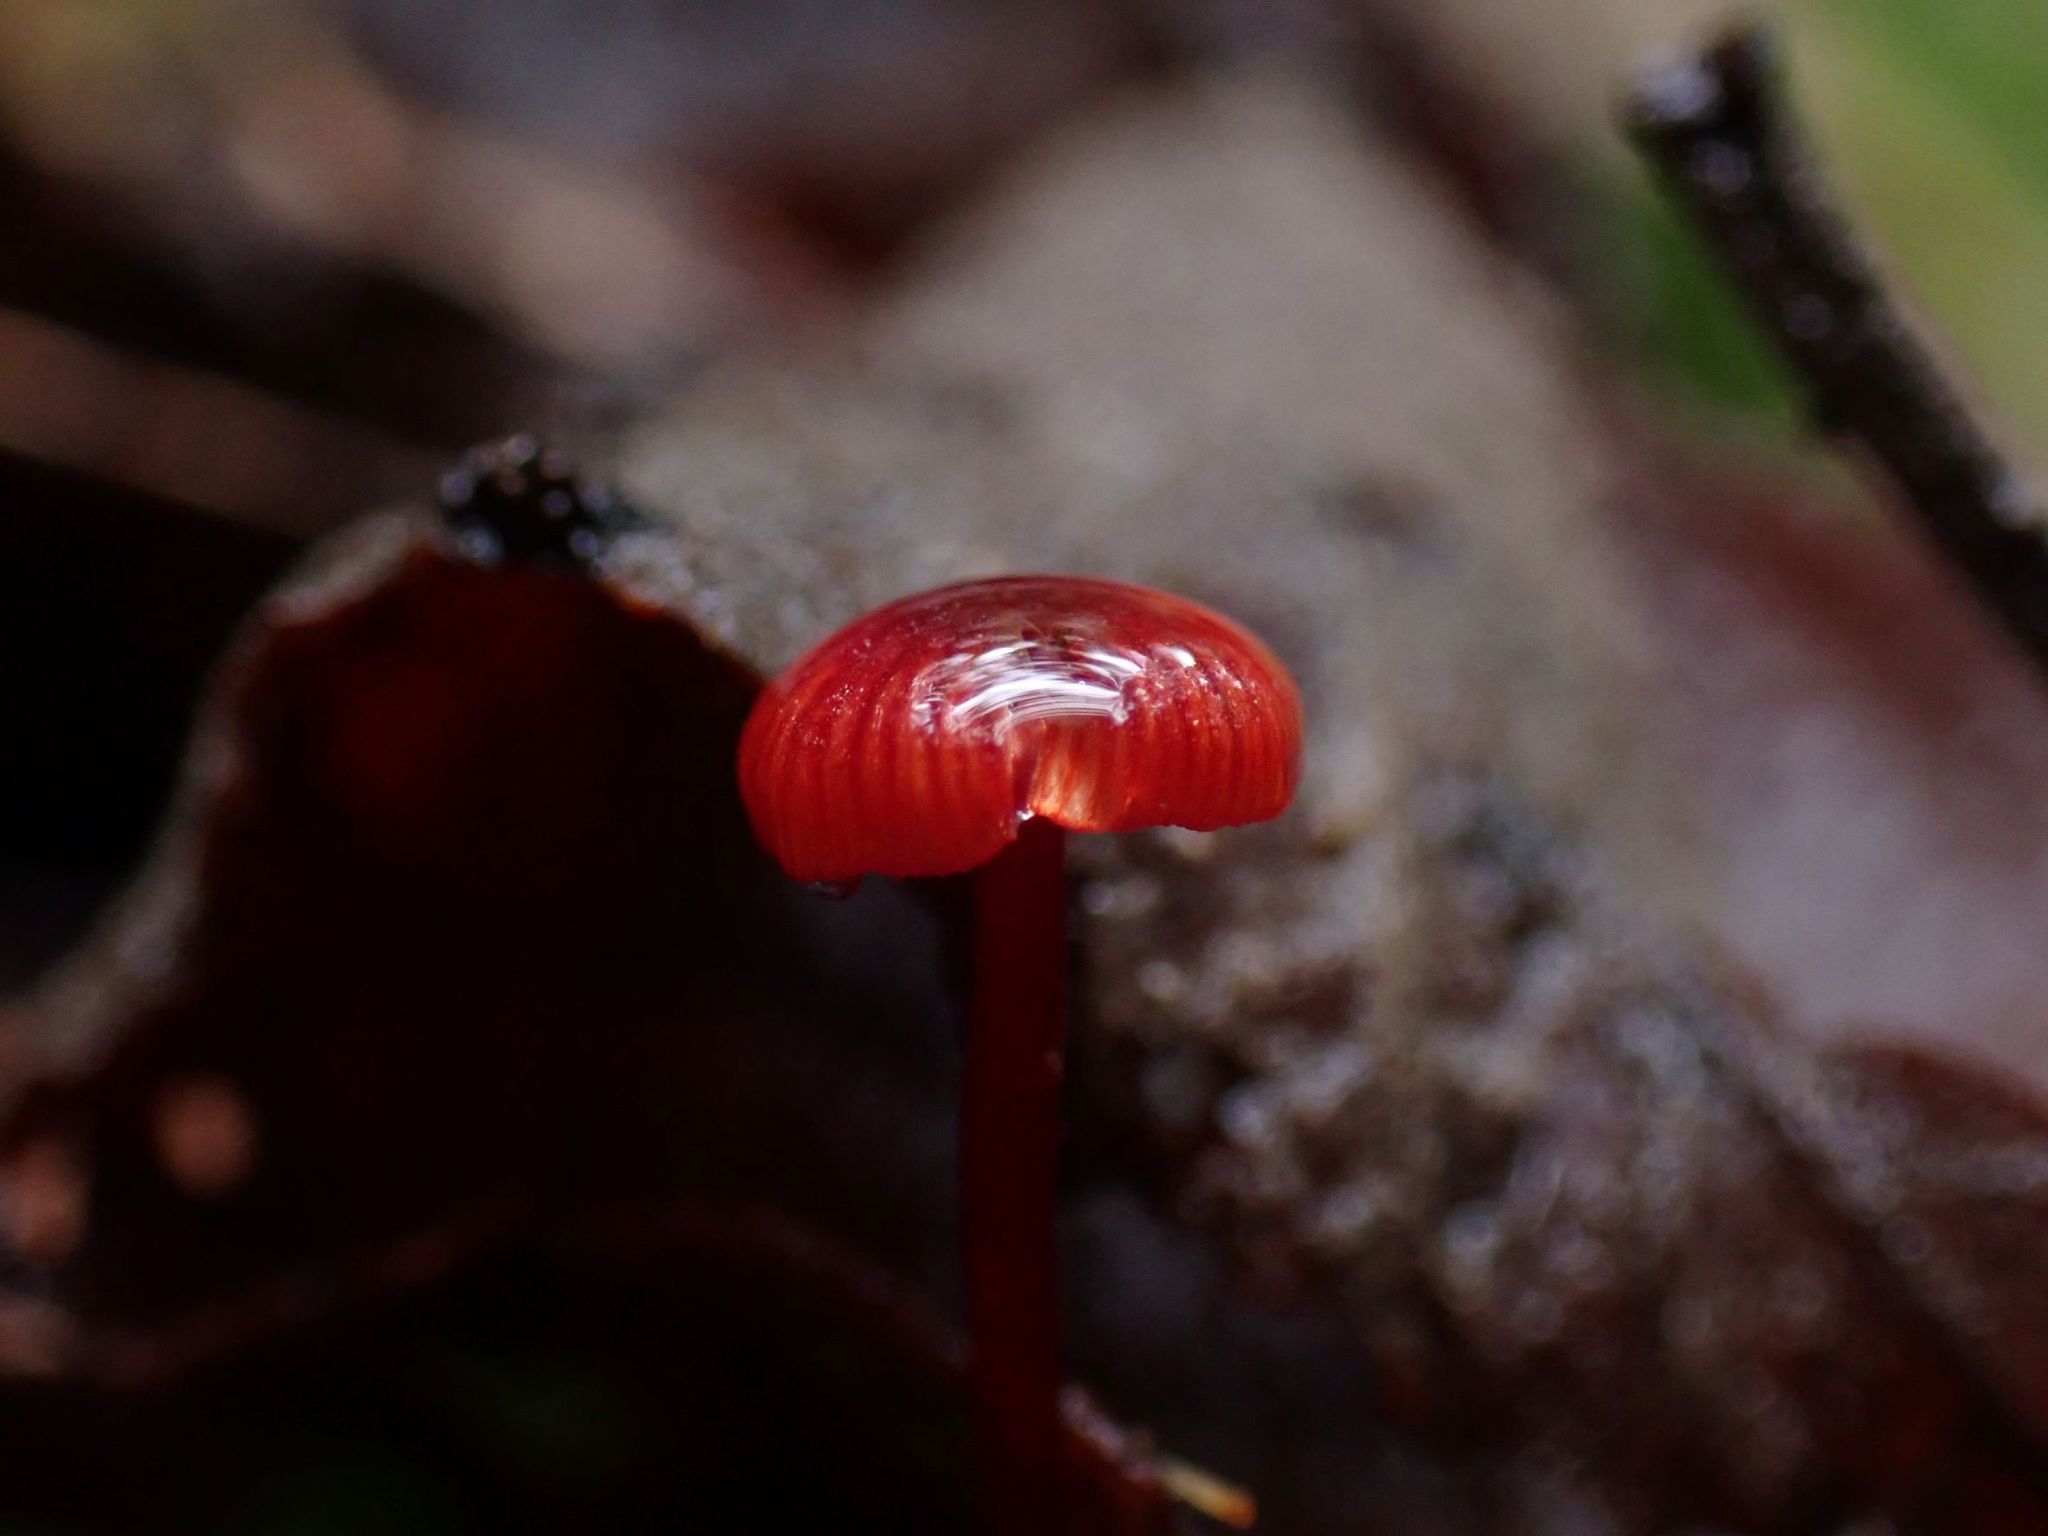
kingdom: Fungi
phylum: Basidiomycota
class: Agaricomycetes
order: Agaricales
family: Mycenaceae
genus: Cruentomycena
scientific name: Cruentomycena viscidocruenta
